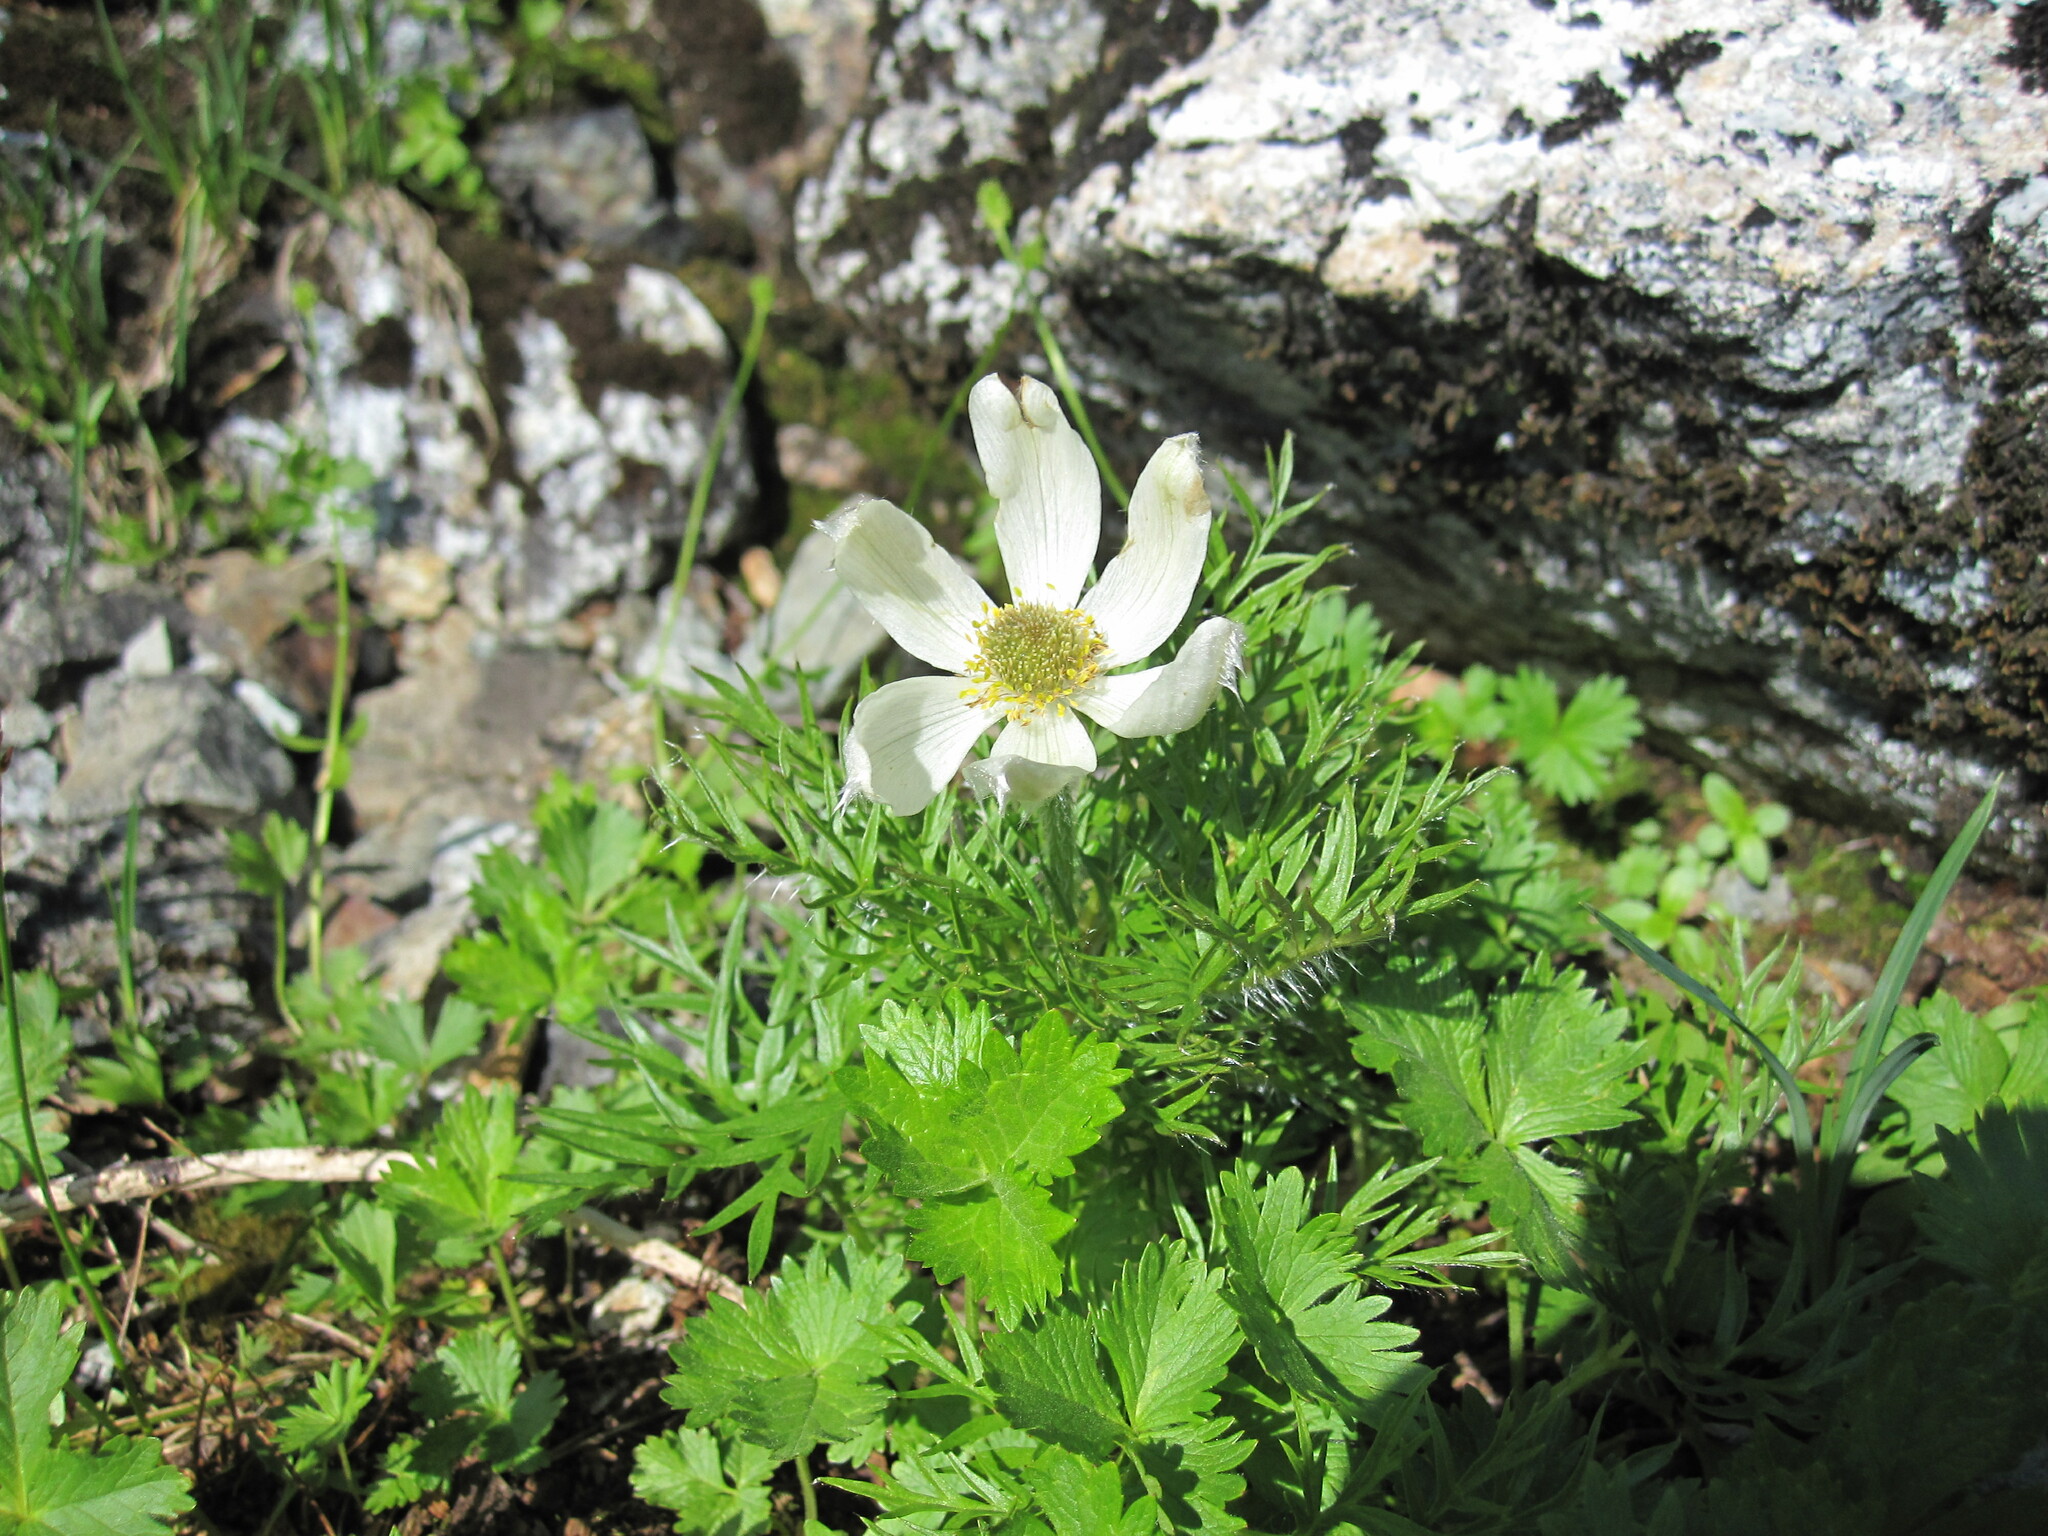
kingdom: Plantae
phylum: Tracheophyta
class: Magnoliopsida
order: Ranunculales
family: Ranunculaceae
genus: Pulsatilla
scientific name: Pulsatilla occidentalis
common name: Mountain pasqueflower
